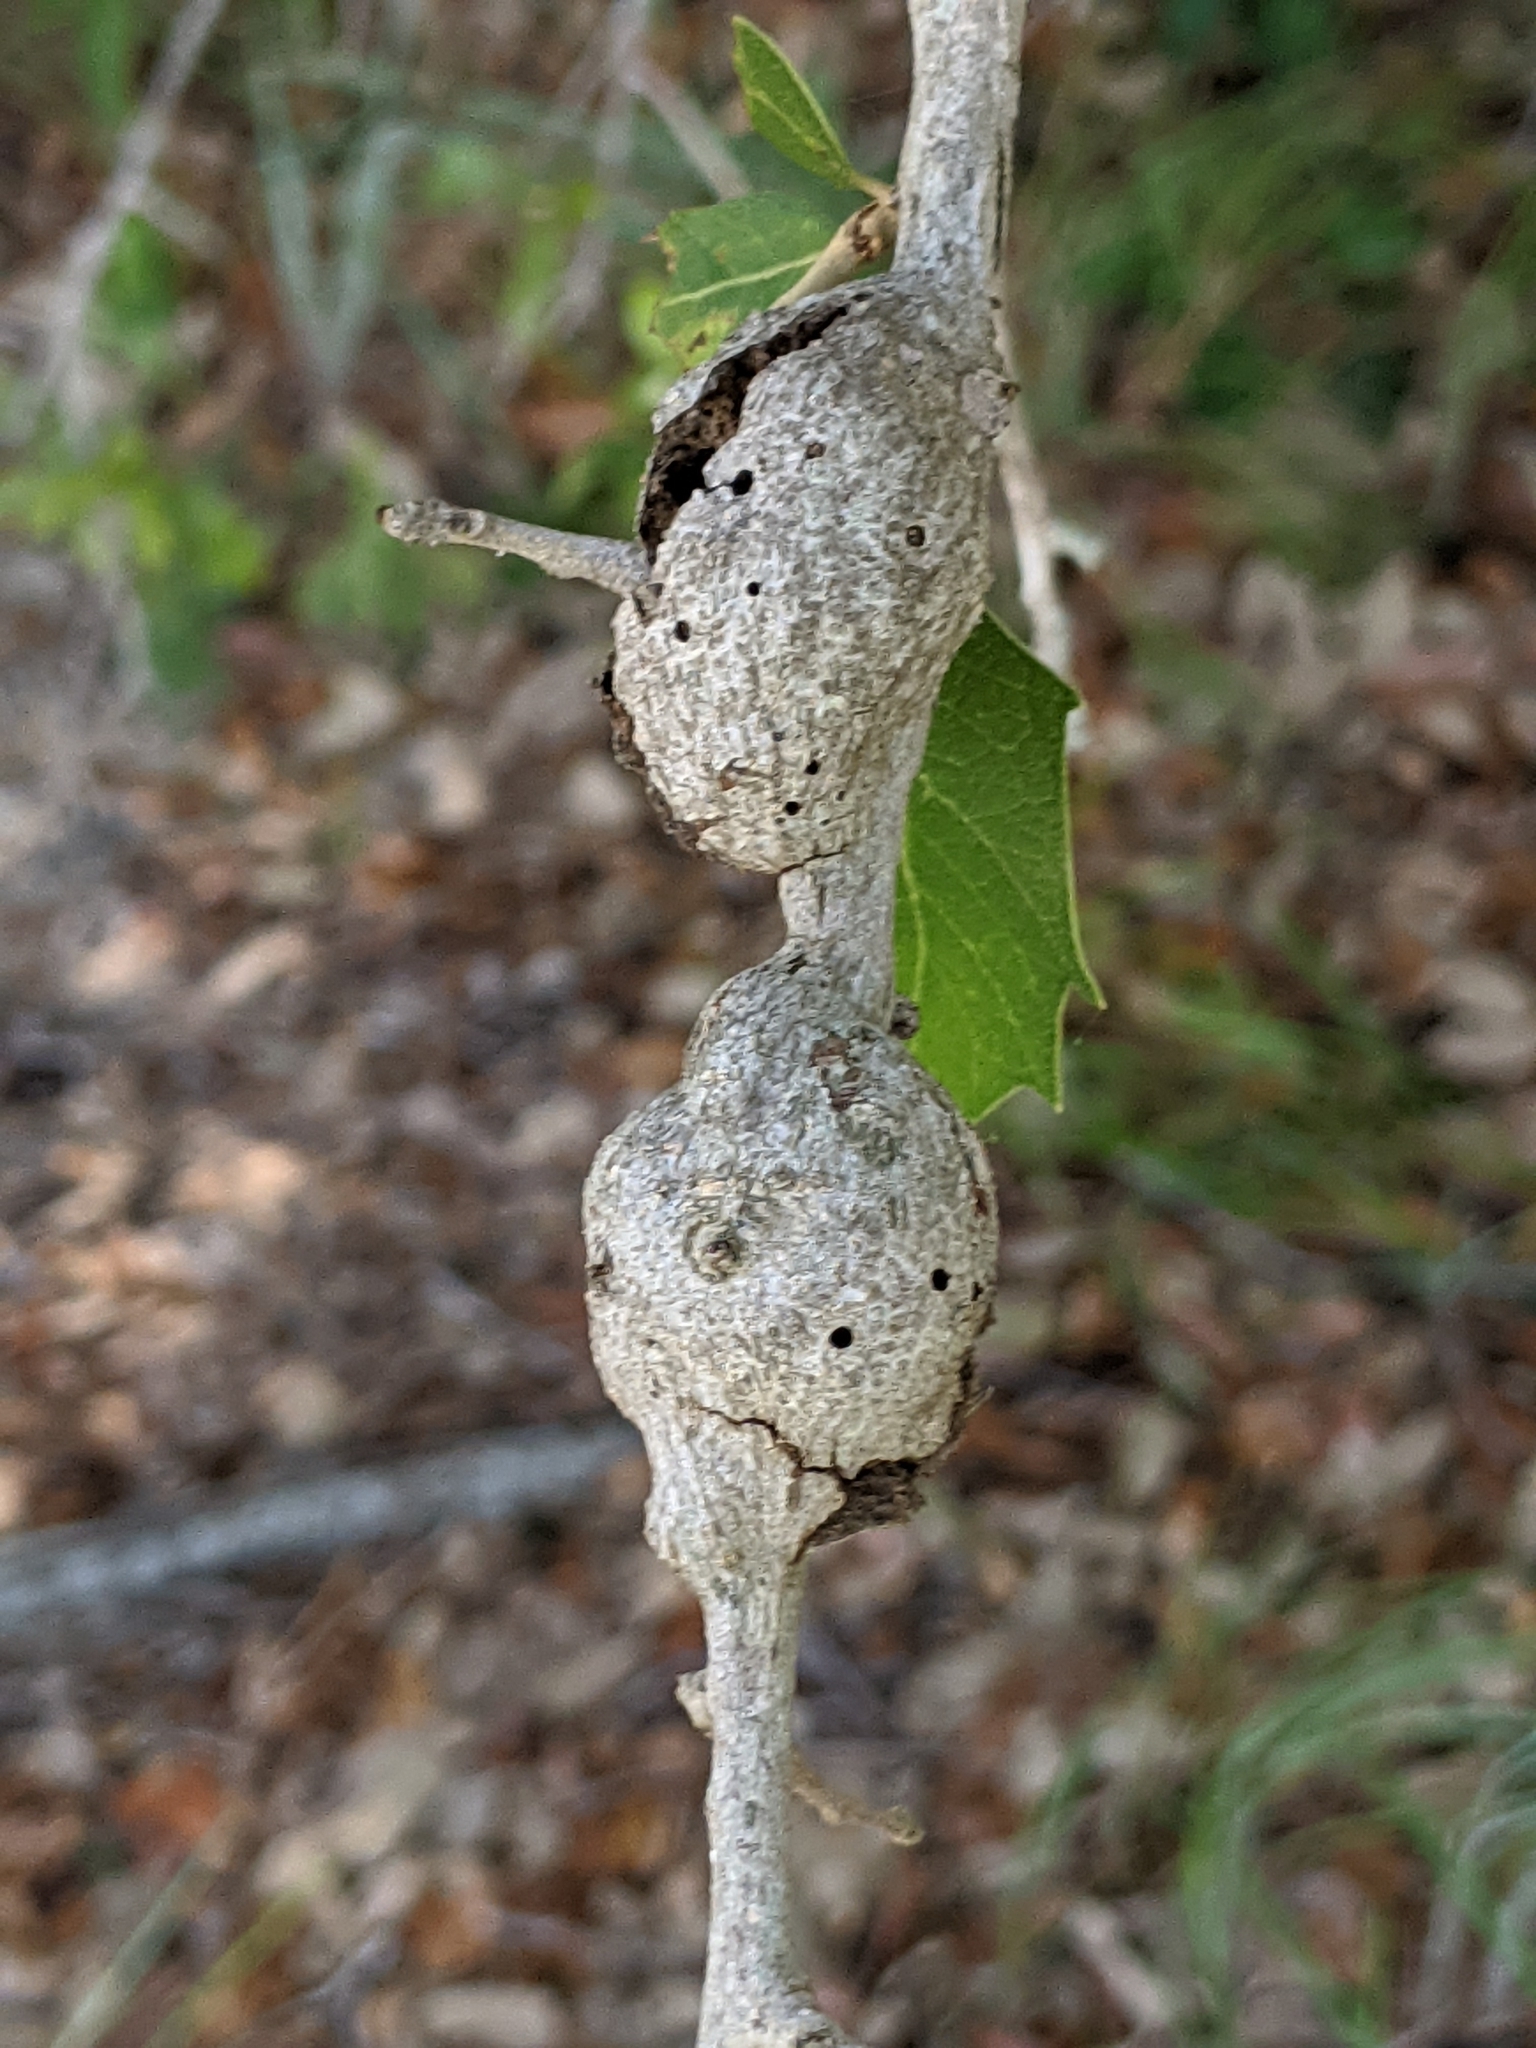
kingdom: Animalia
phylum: Arthropoda
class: Insecta
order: Hymenoptera
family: Cynipidae
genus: Callirhytis
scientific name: Callirhytis
